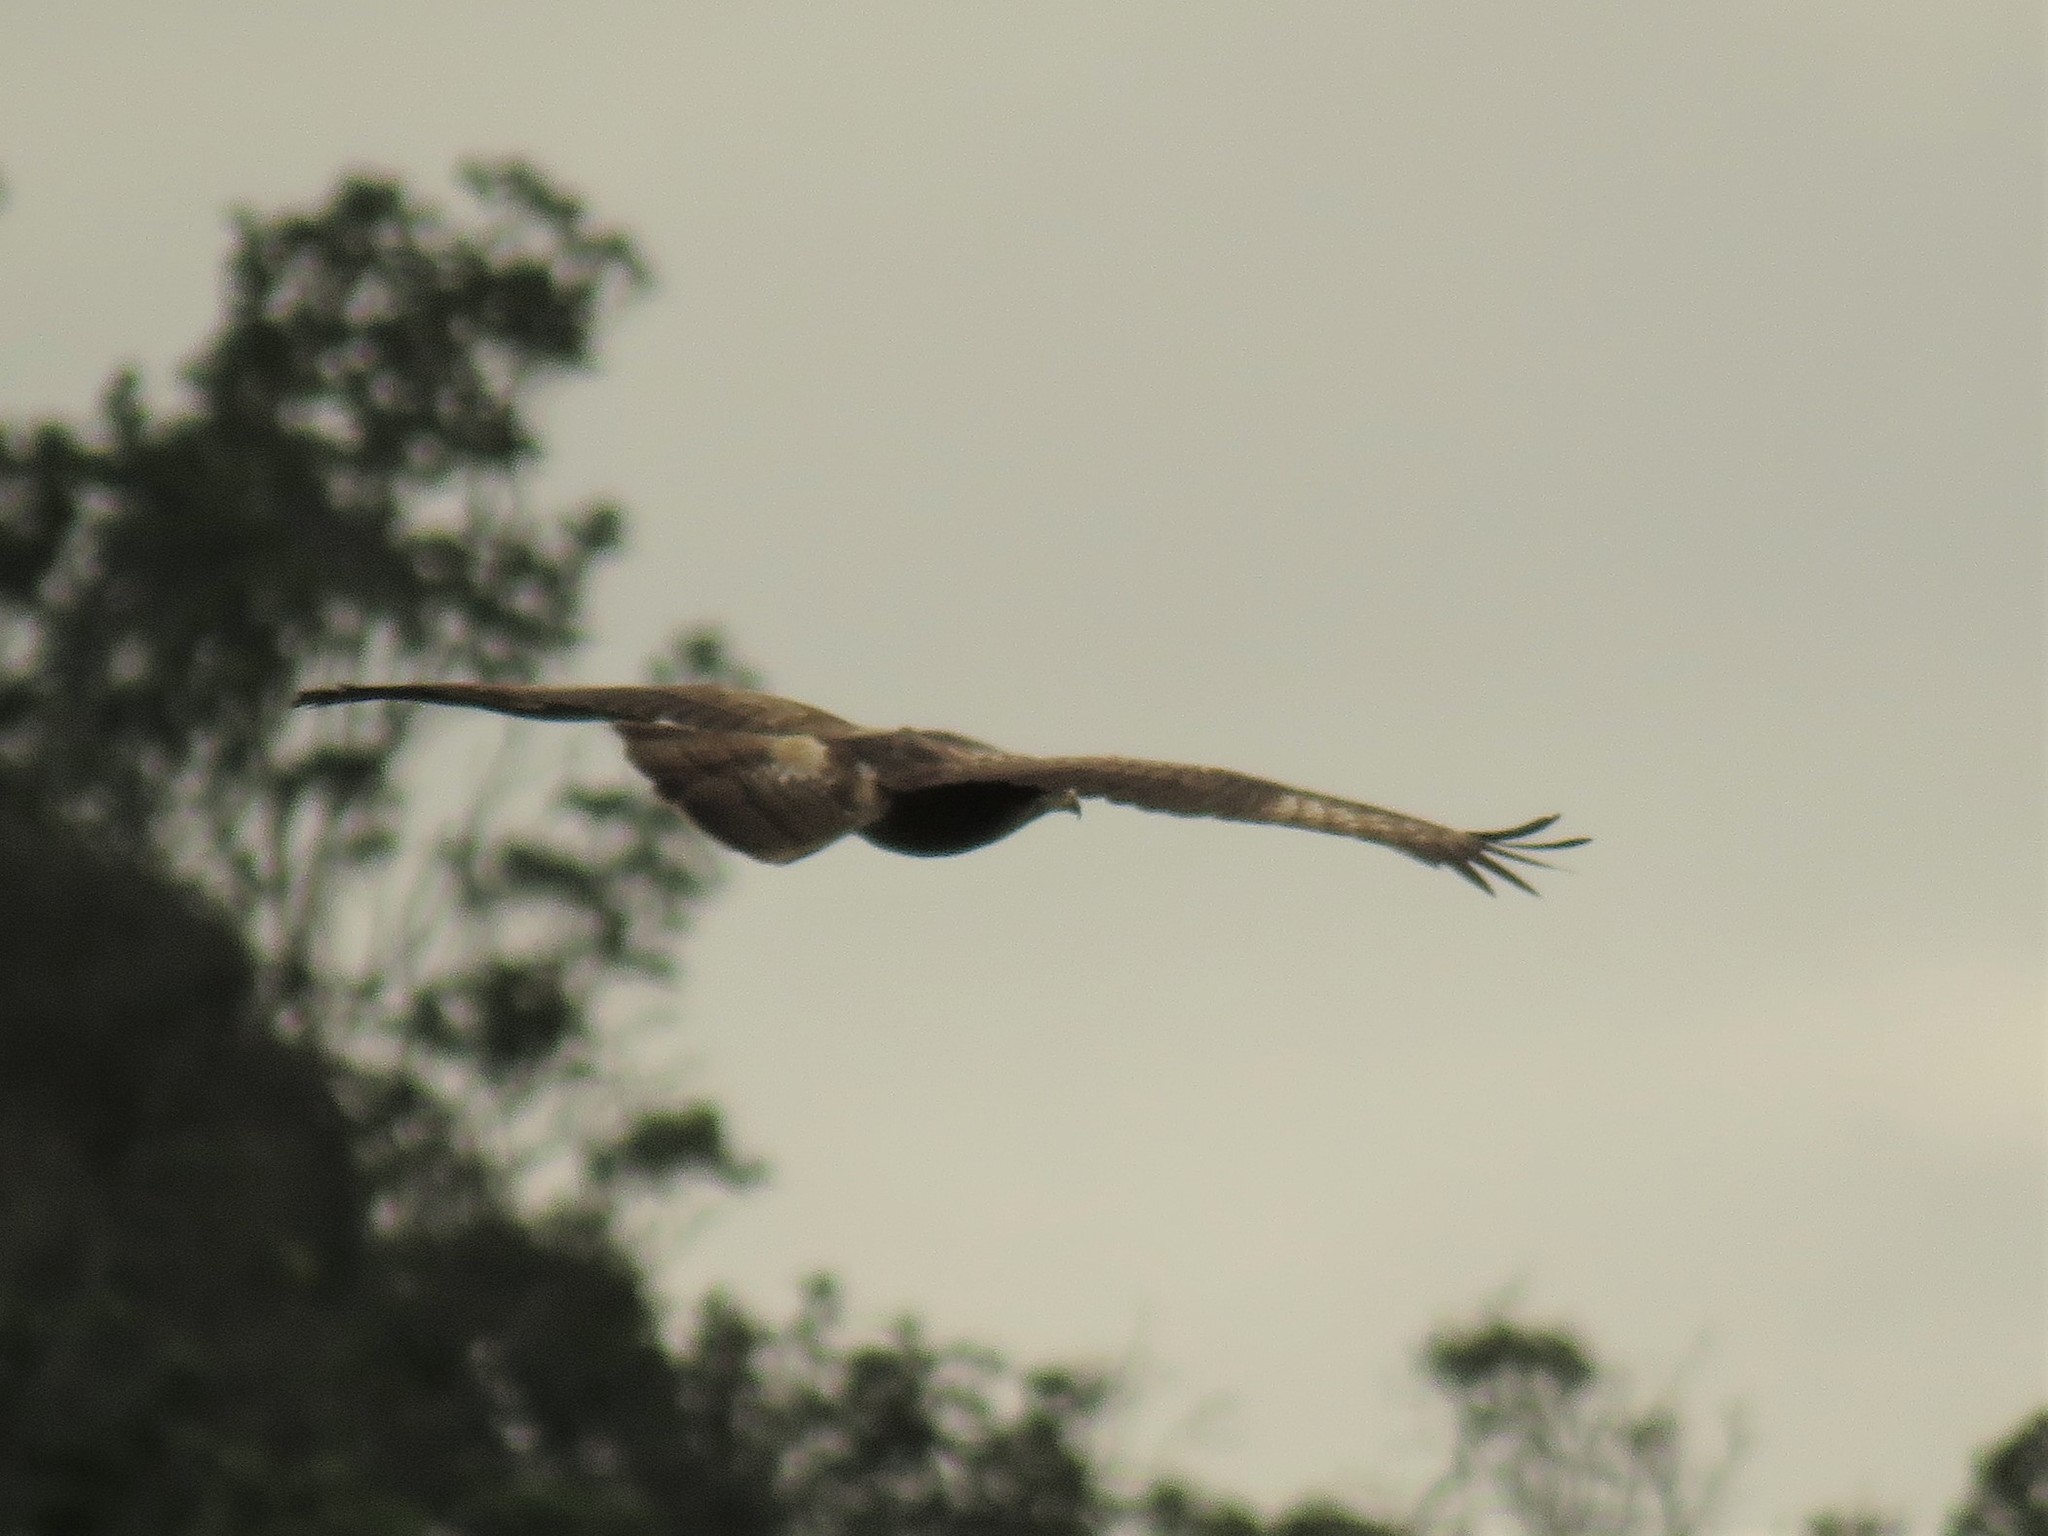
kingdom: Animalia
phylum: Chordata
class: Aves
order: Accipitriformes
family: Accipitridae
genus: Pernis
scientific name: Pernis apivorus
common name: European honey buzzard
